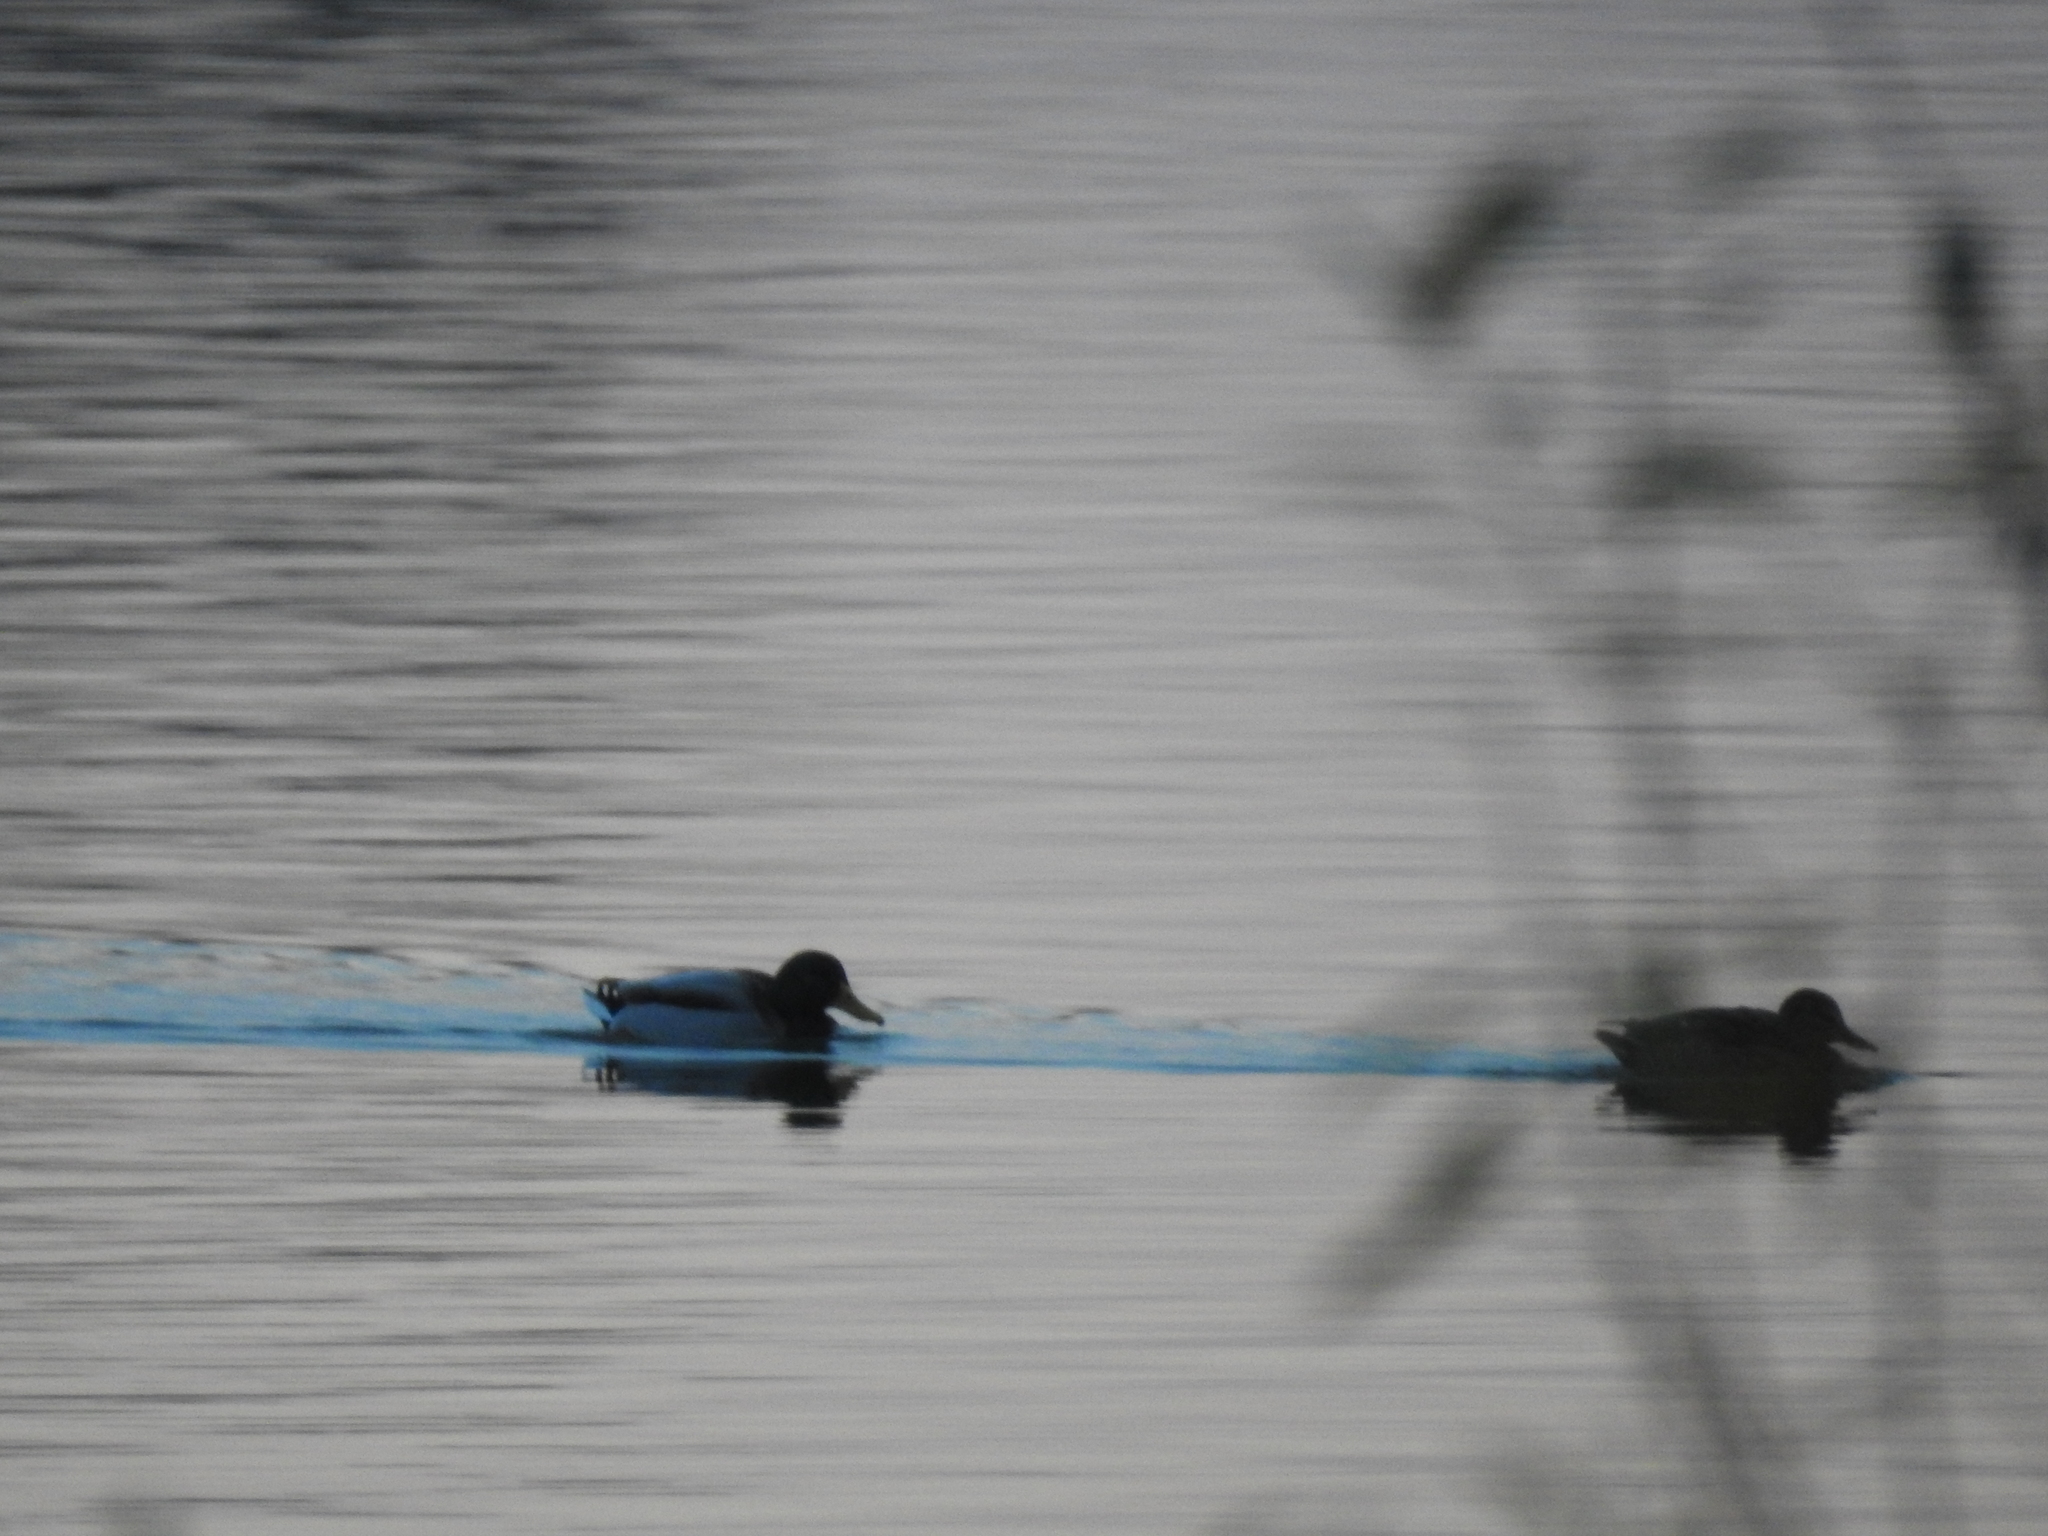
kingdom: Animalia
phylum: Chordata
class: Aves
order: Anseriformes
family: Anatidae
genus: Anas
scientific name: Anas platyrhynchos
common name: Mallard
